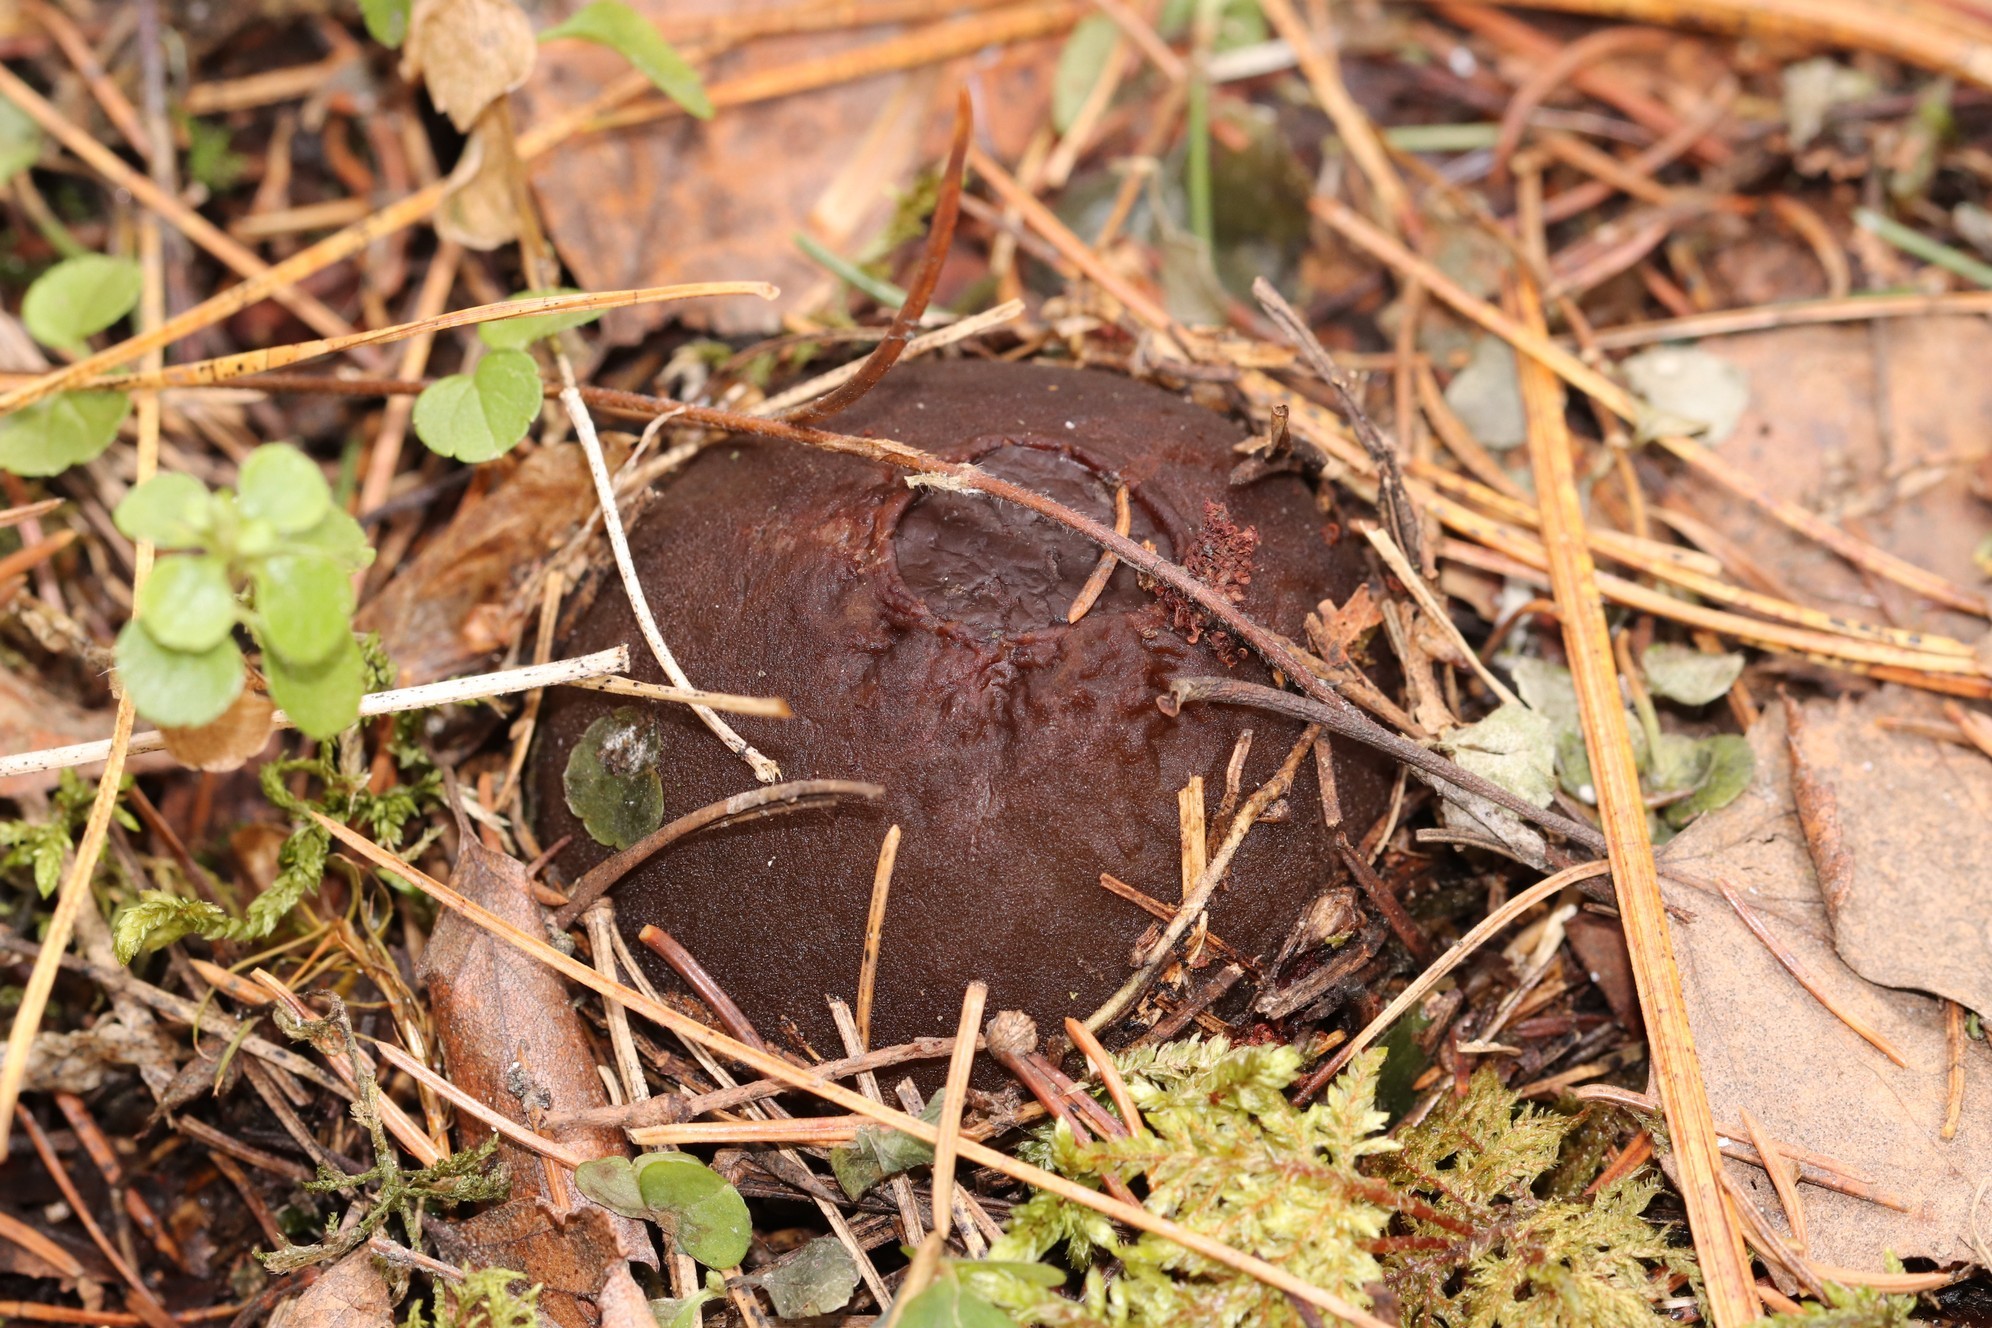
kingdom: Fungi
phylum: Ascomycota
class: Pezizomycetes
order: Pezizales
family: Sarcosomataceae
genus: Sarcosoma
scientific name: Sarcosoma globosum
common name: Charred-pancake cup
